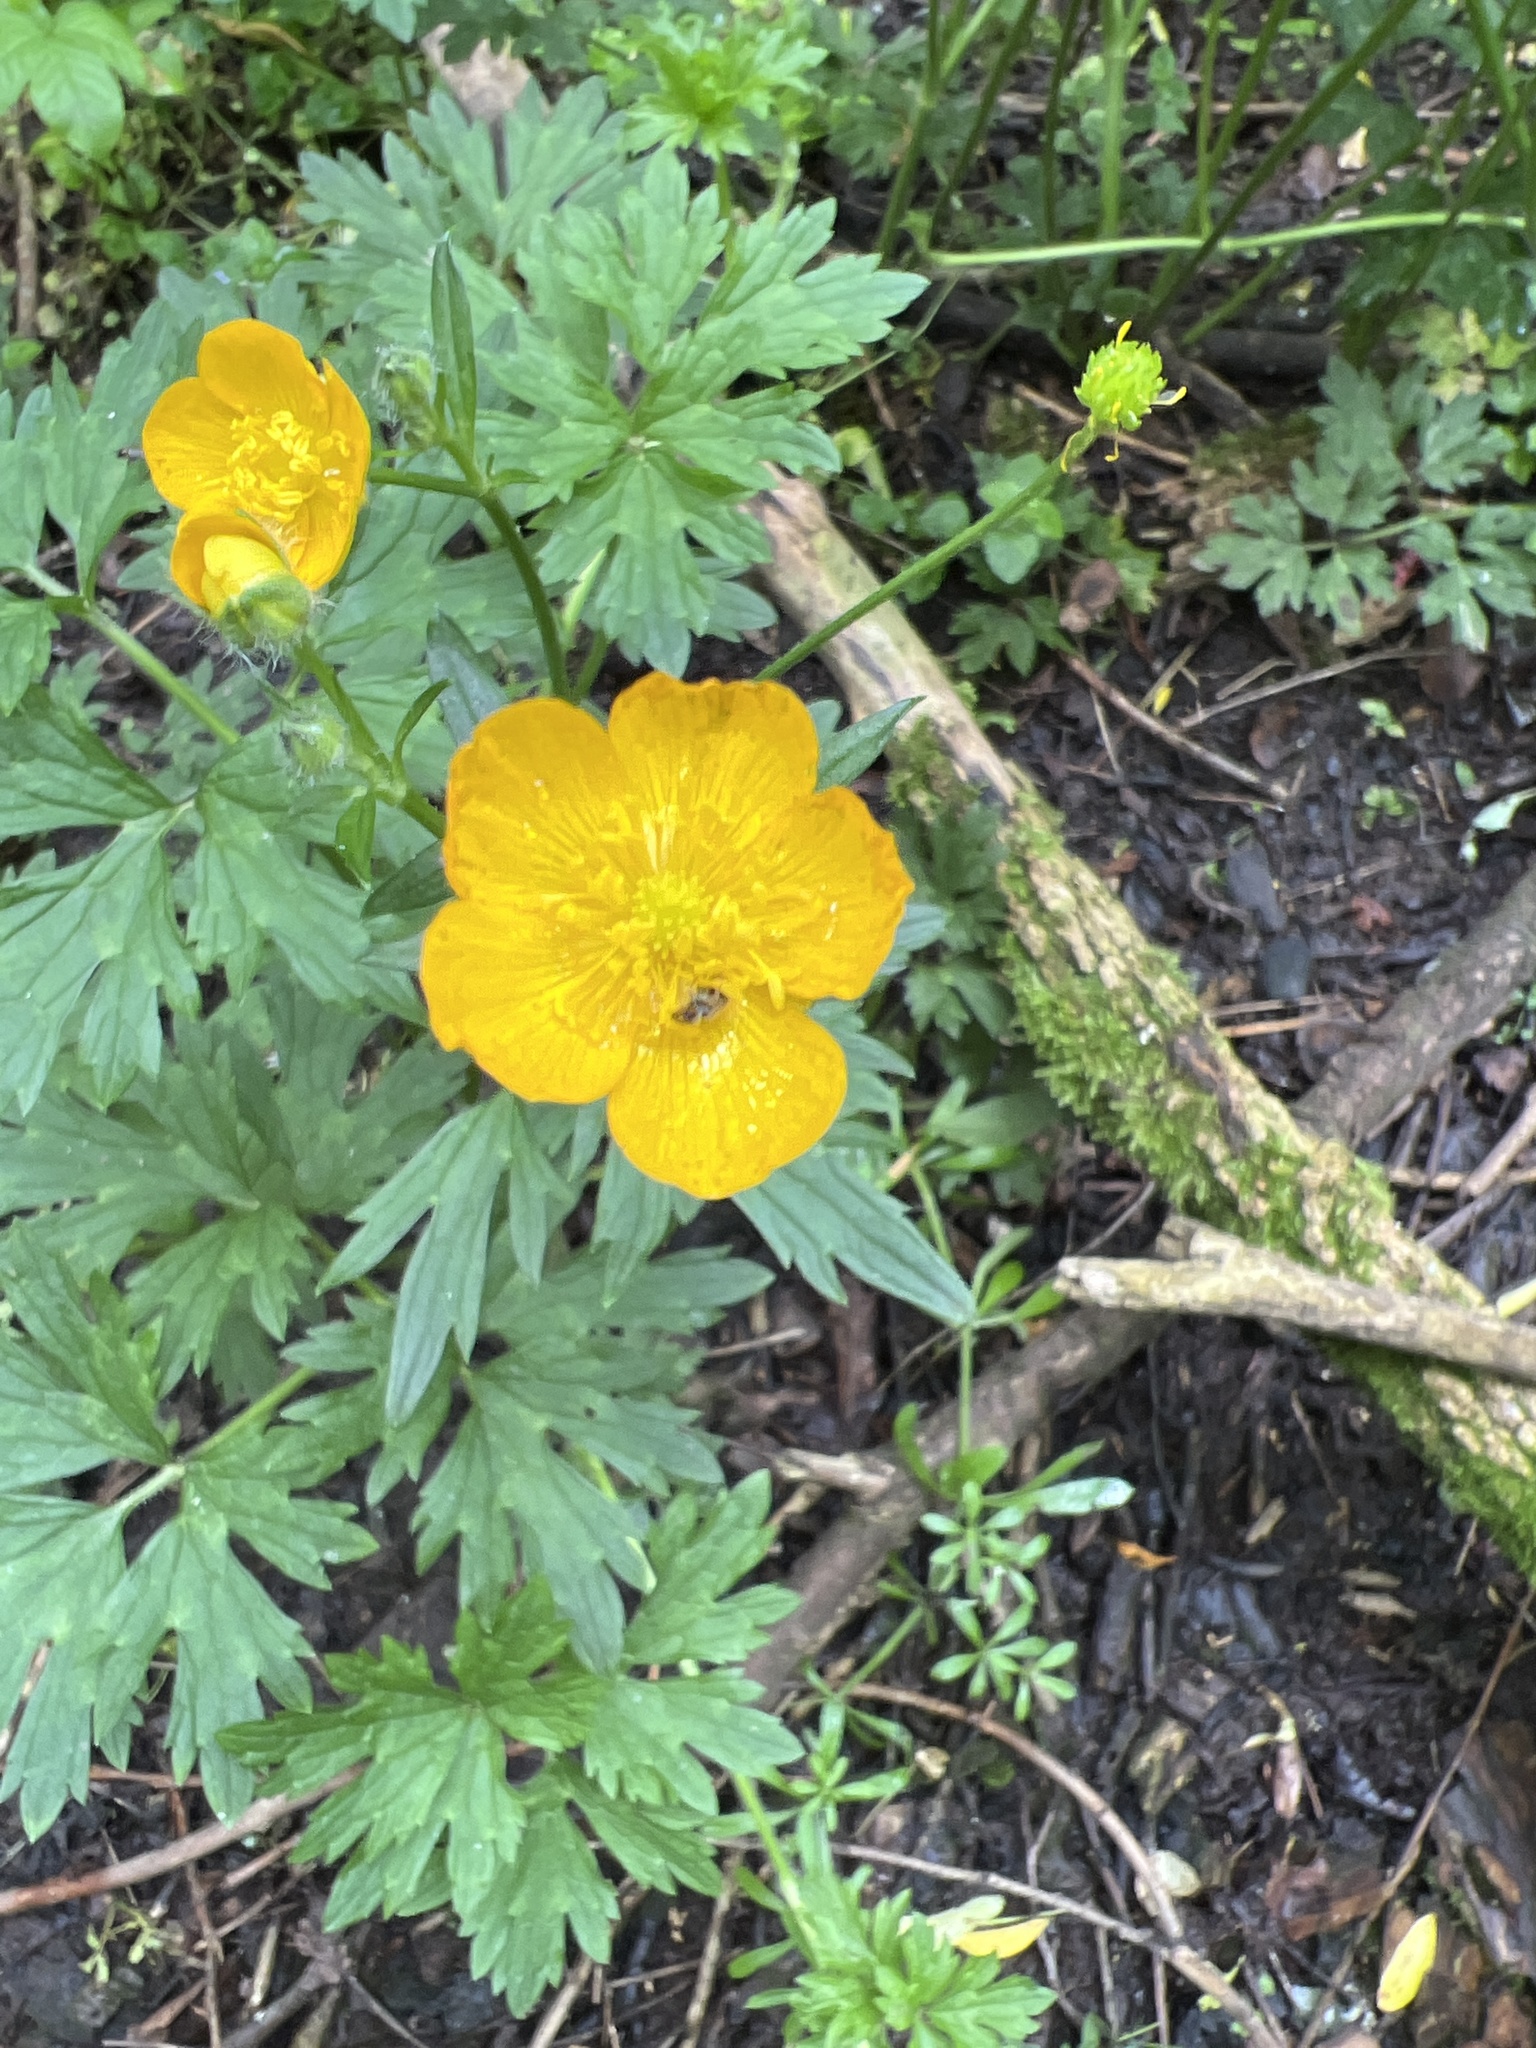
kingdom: Plantae
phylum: Tracheophyta
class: Magnoliopsida
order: Ranunculales
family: Ranunculaceae
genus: Ranunculus
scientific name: Ranunculus repens
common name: Creeping buttercup
